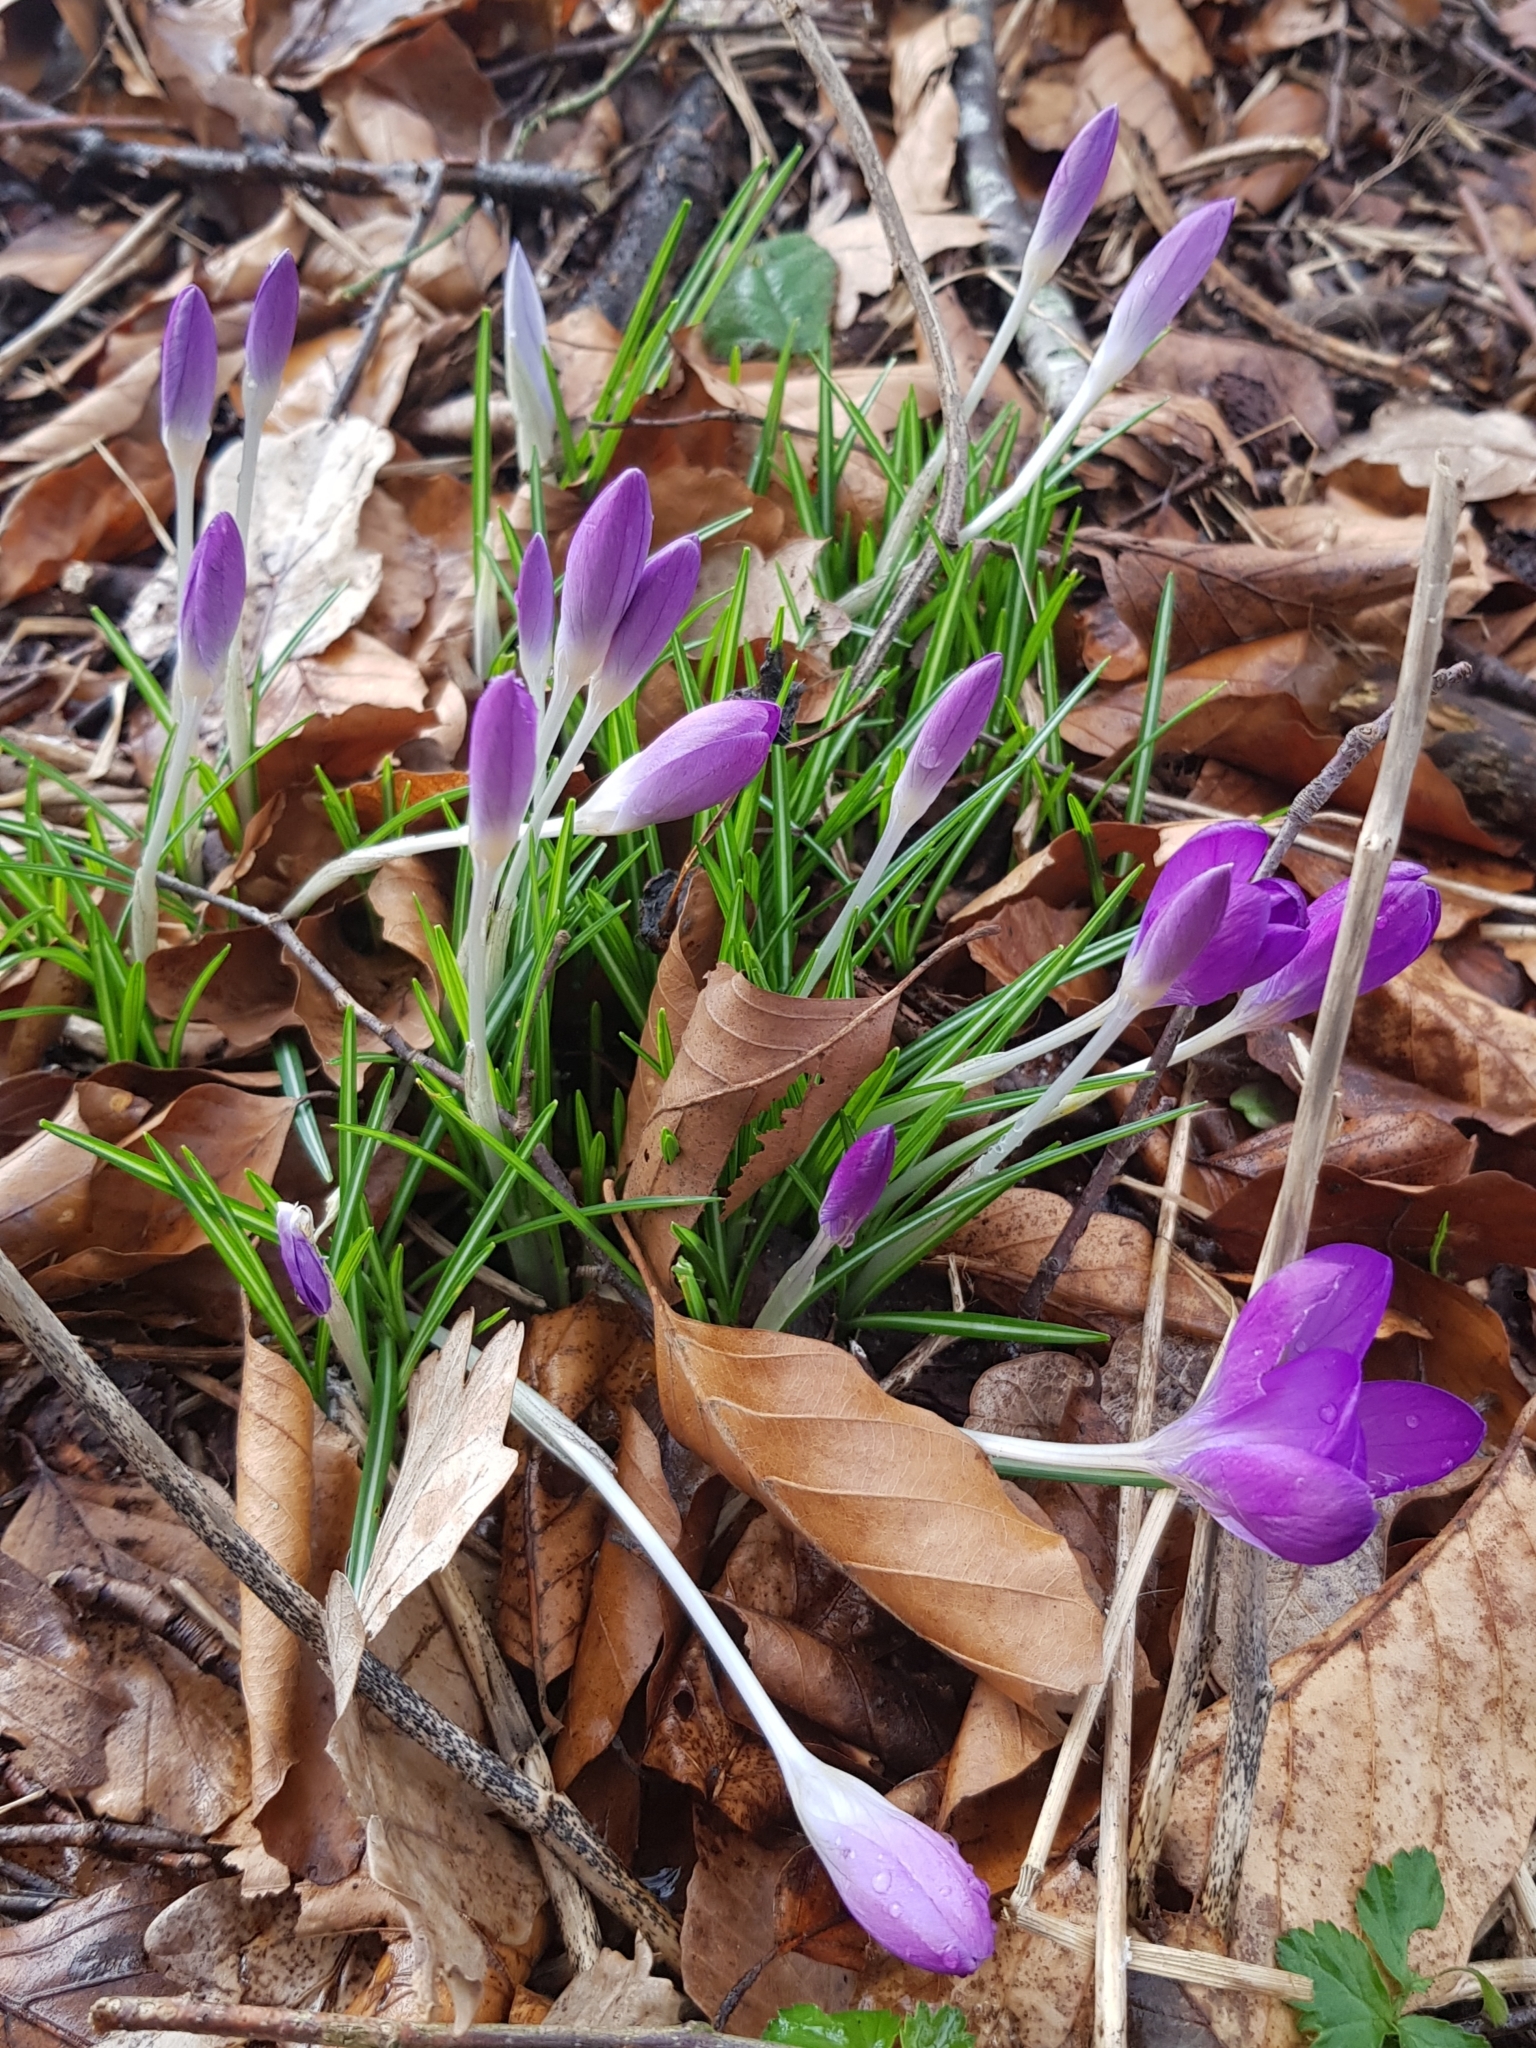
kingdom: Plantae
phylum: Tracheophyta
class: Liliopsida
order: Asparagales
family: Iridaceae
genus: Crocus
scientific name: Crocus tommasinianus
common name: Early crocus
